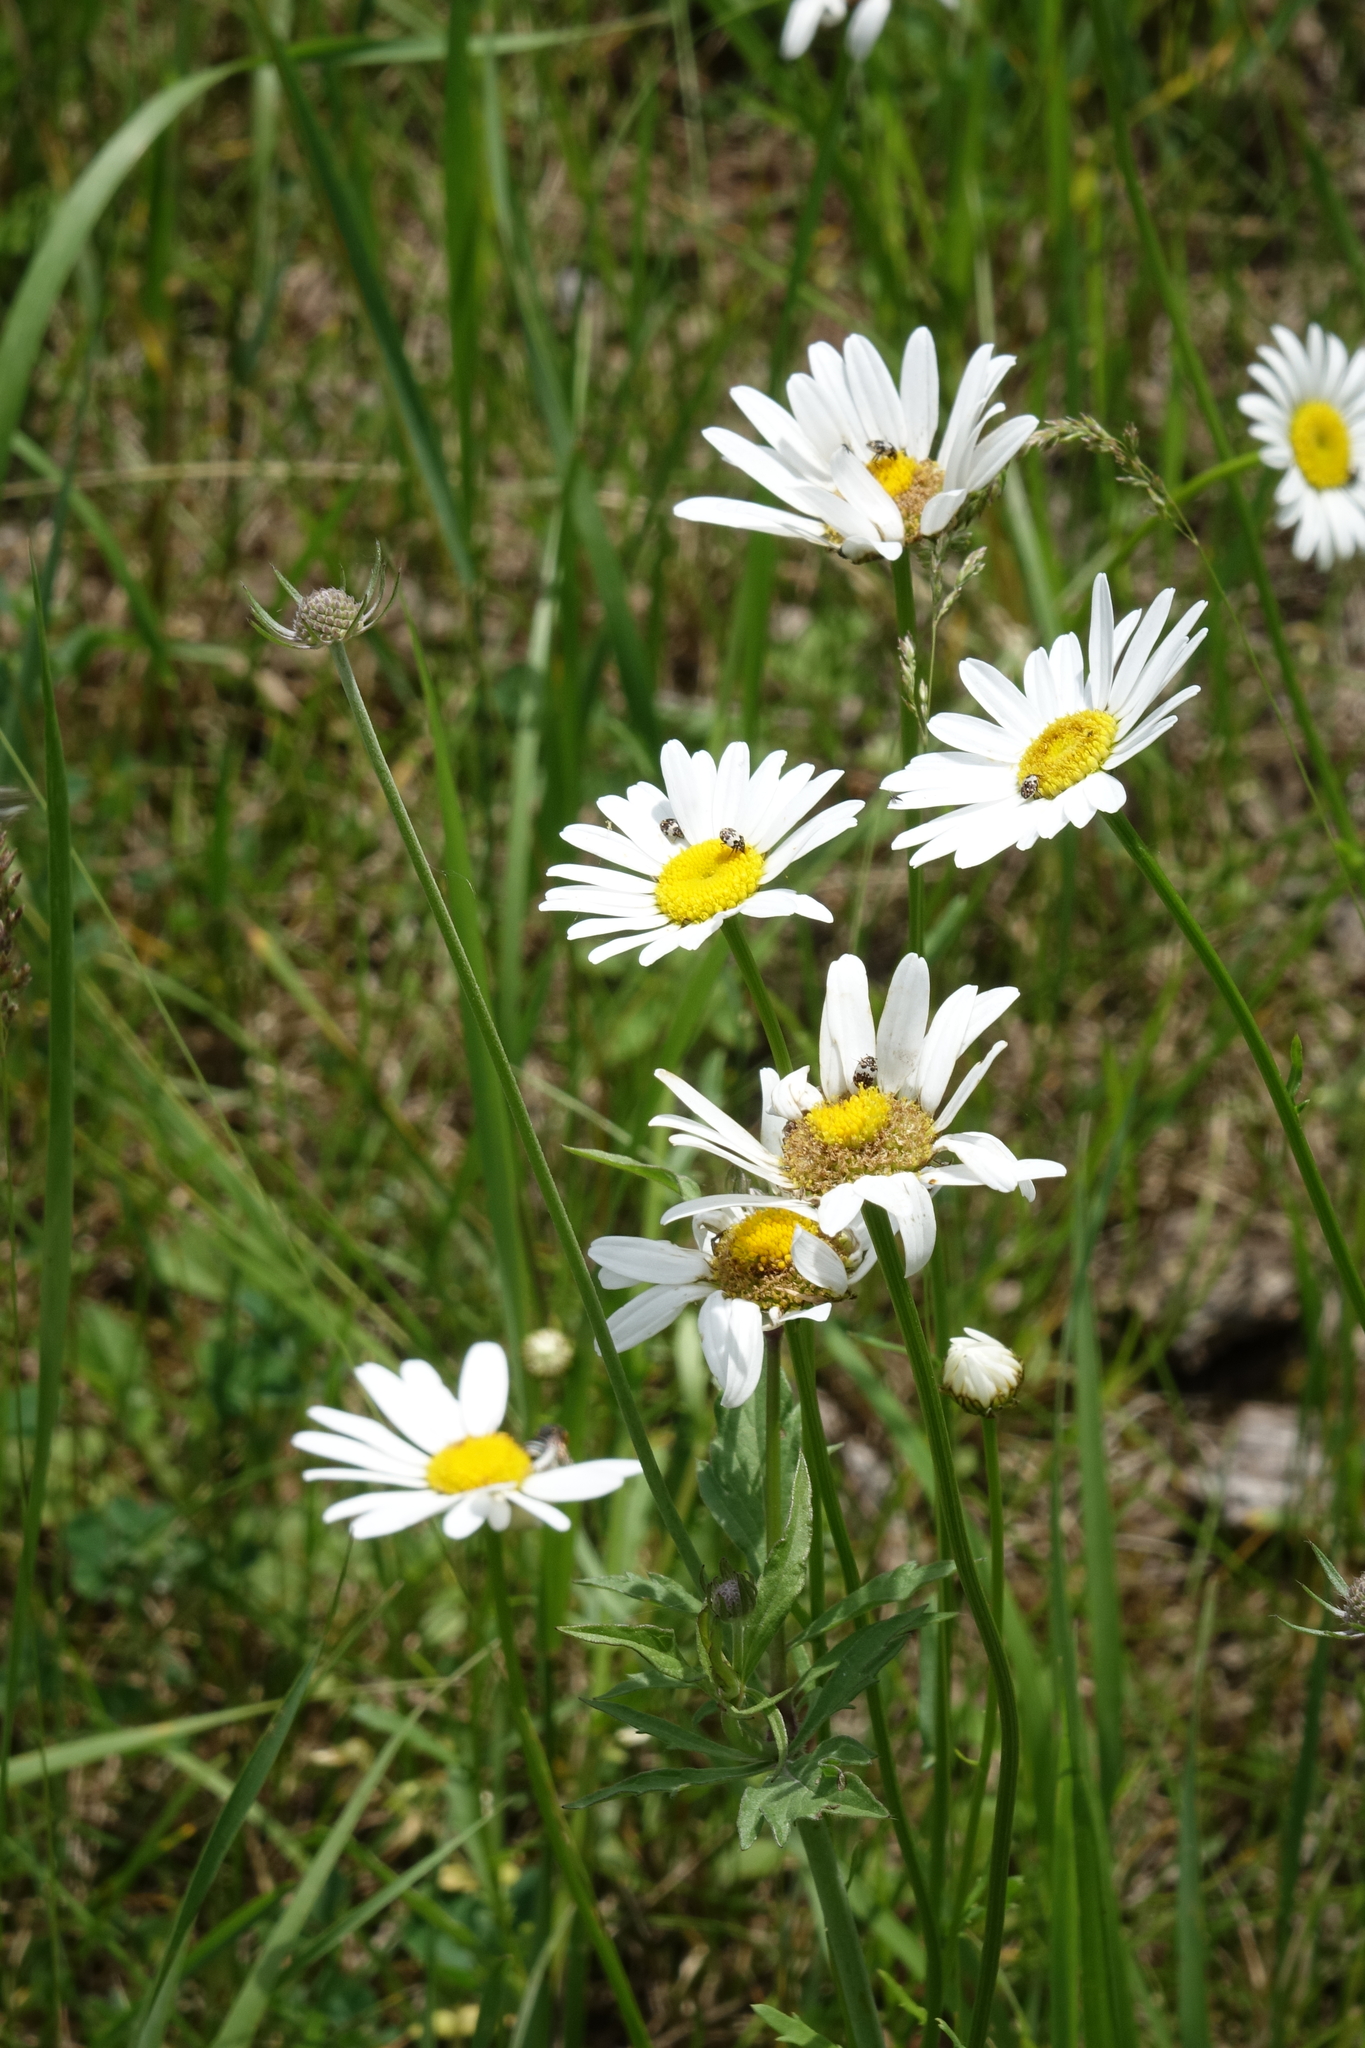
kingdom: Plantae
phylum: Tracheophyta
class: Magnoliopsida
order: Asterales
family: Asteraceae
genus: Leucanthemum
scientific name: Leucanthemum vulgare
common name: Oxeye daisy
